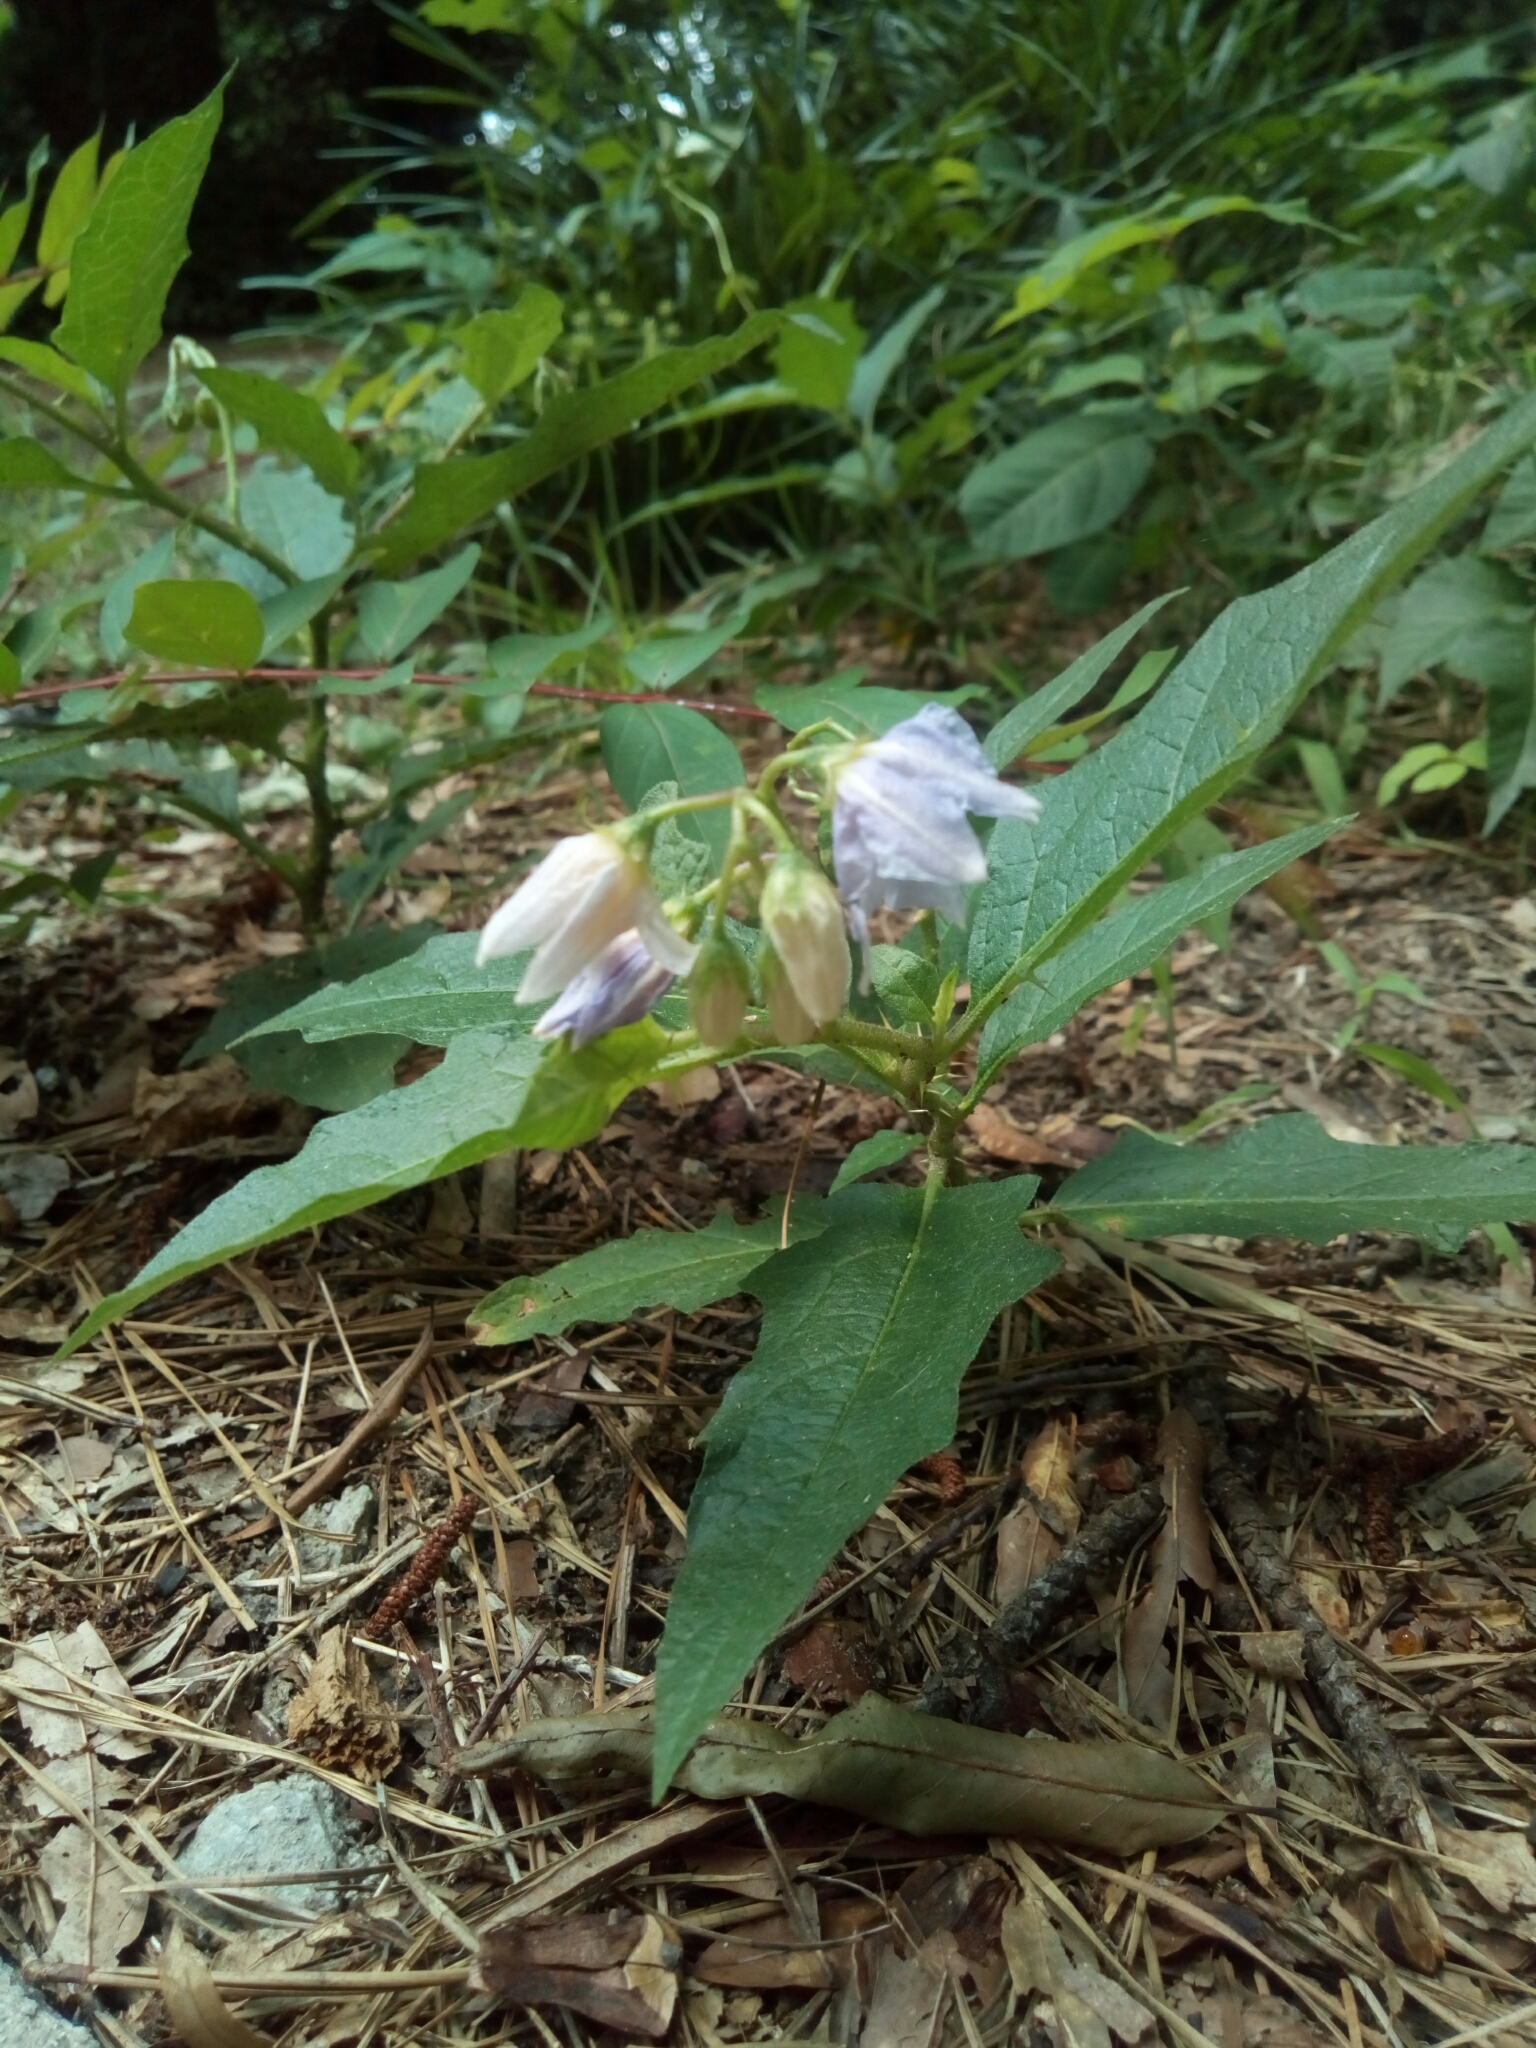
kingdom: Plantae
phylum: Tracheophyta
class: Magnoliopsida
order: Solanales
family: Solanaceae
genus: Solanum
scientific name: Solanum carolinense
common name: Horse-nettle
